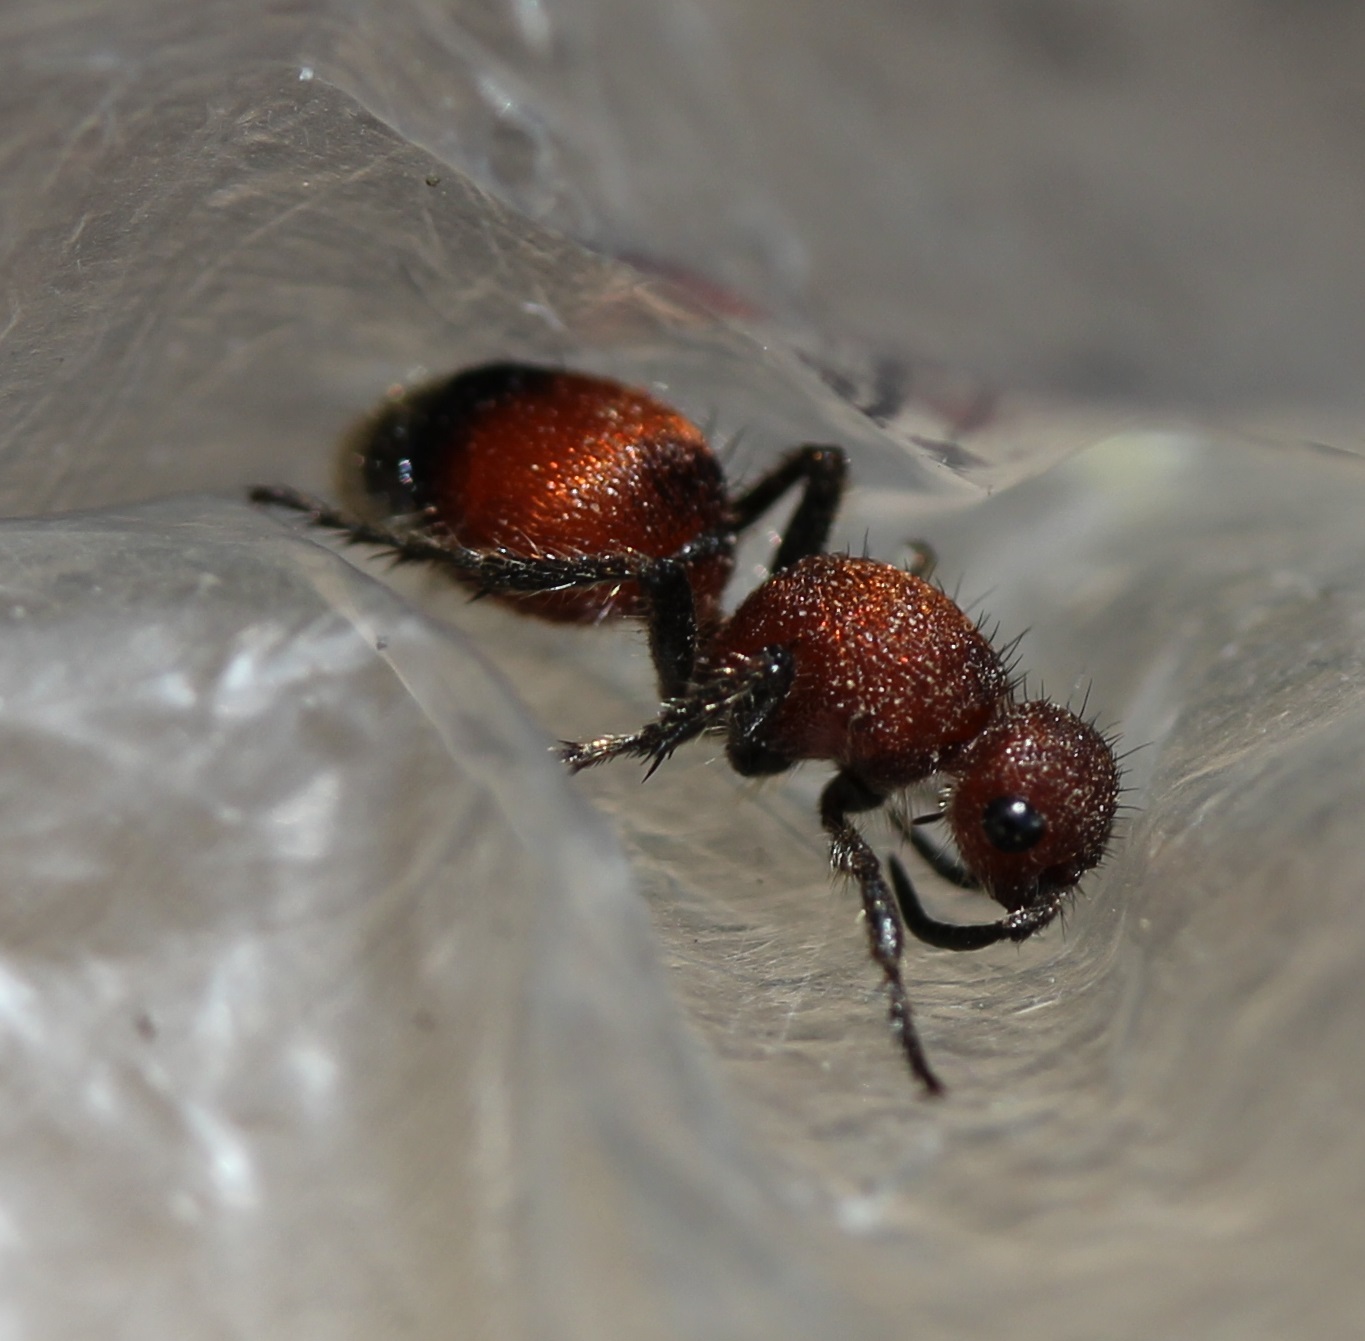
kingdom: Animalia
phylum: Arthropoda
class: Insecta
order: Hymenoptera
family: Mutillidae
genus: Dasymutilla
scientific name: Dasymutilla
